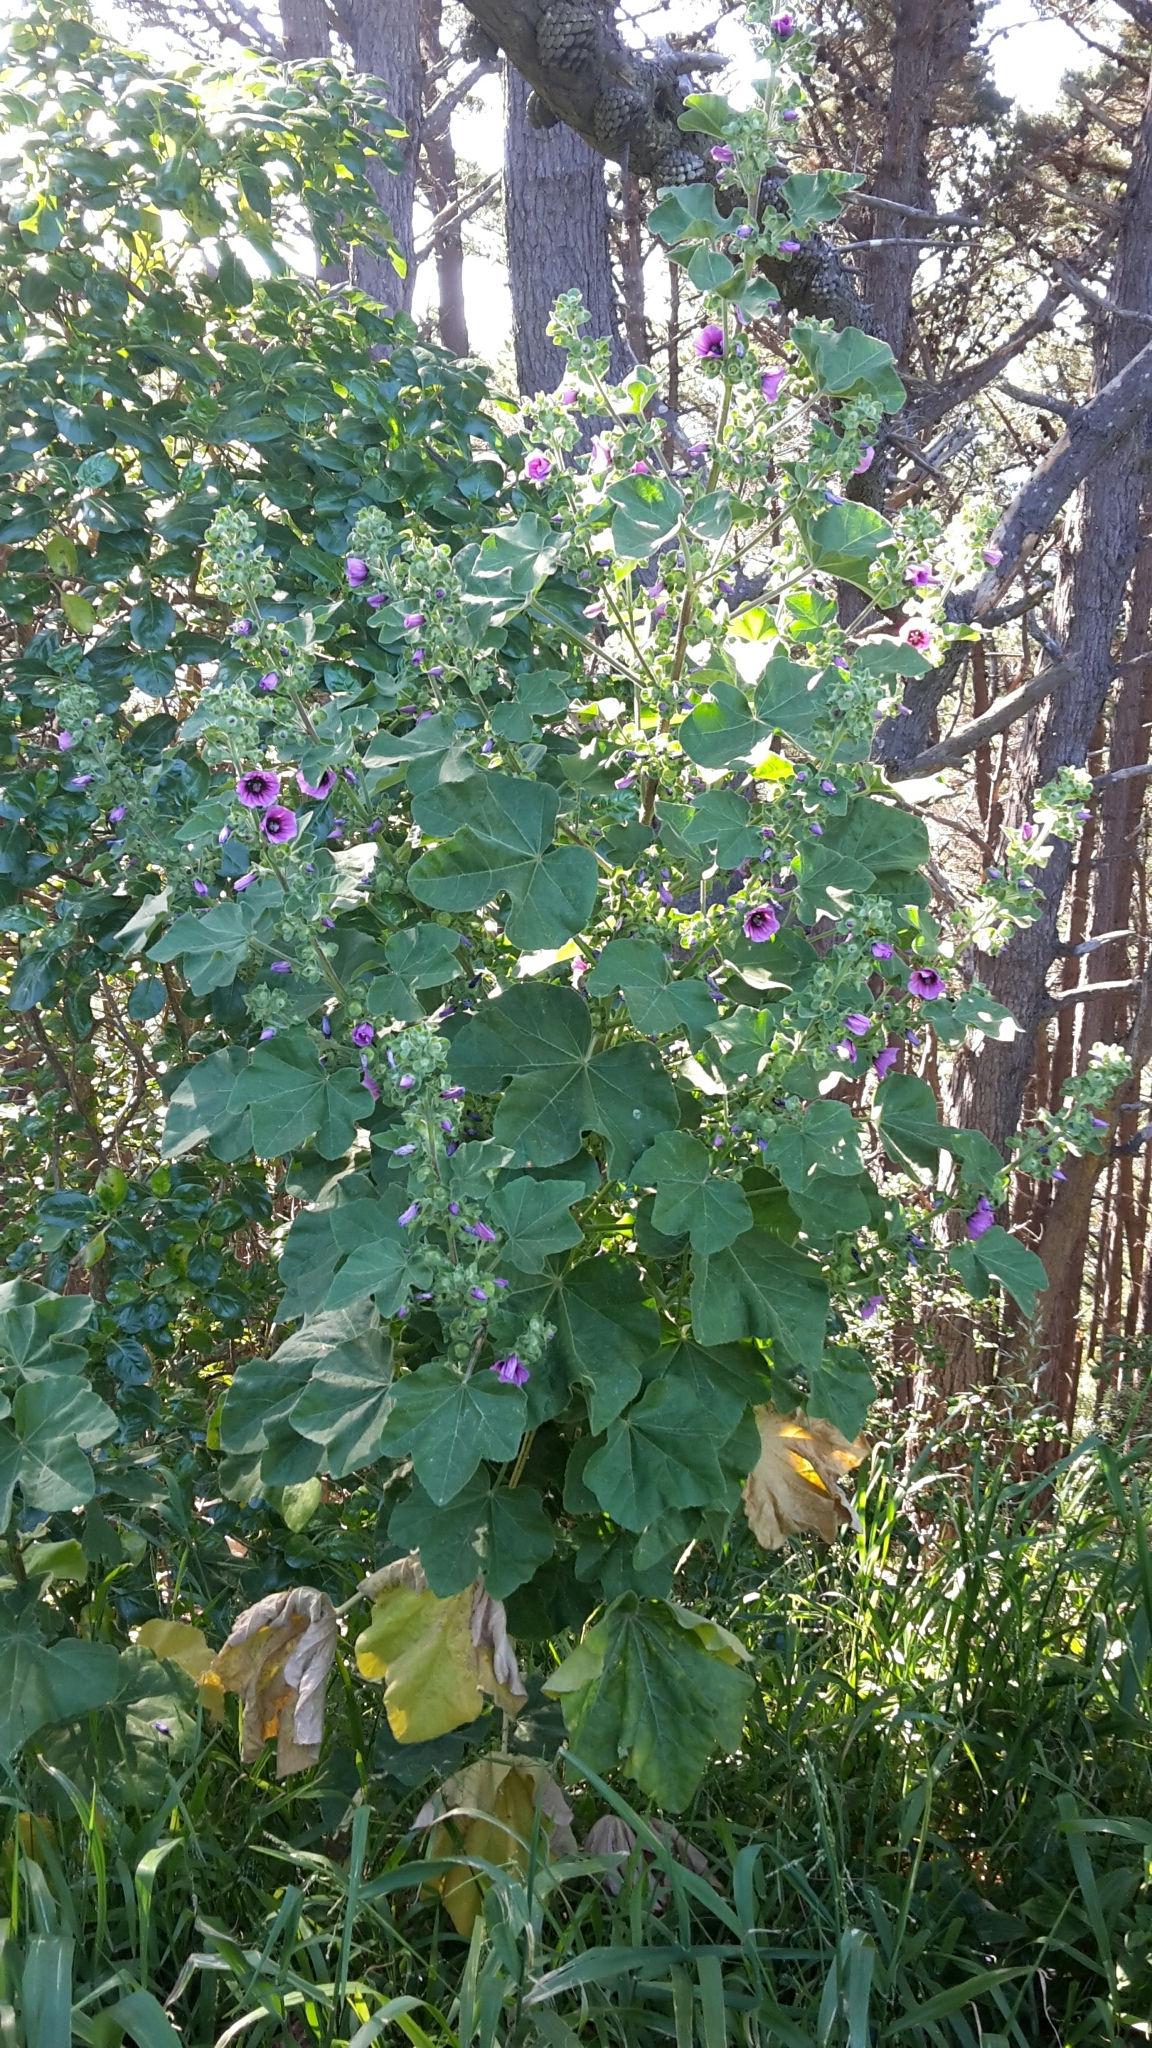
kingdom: Plantae
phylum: Tracheophyta
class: Magnoliopsida
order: Malvales
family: Malvaceae
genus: Malva
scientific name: Malva arborea
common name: Tree mallow
